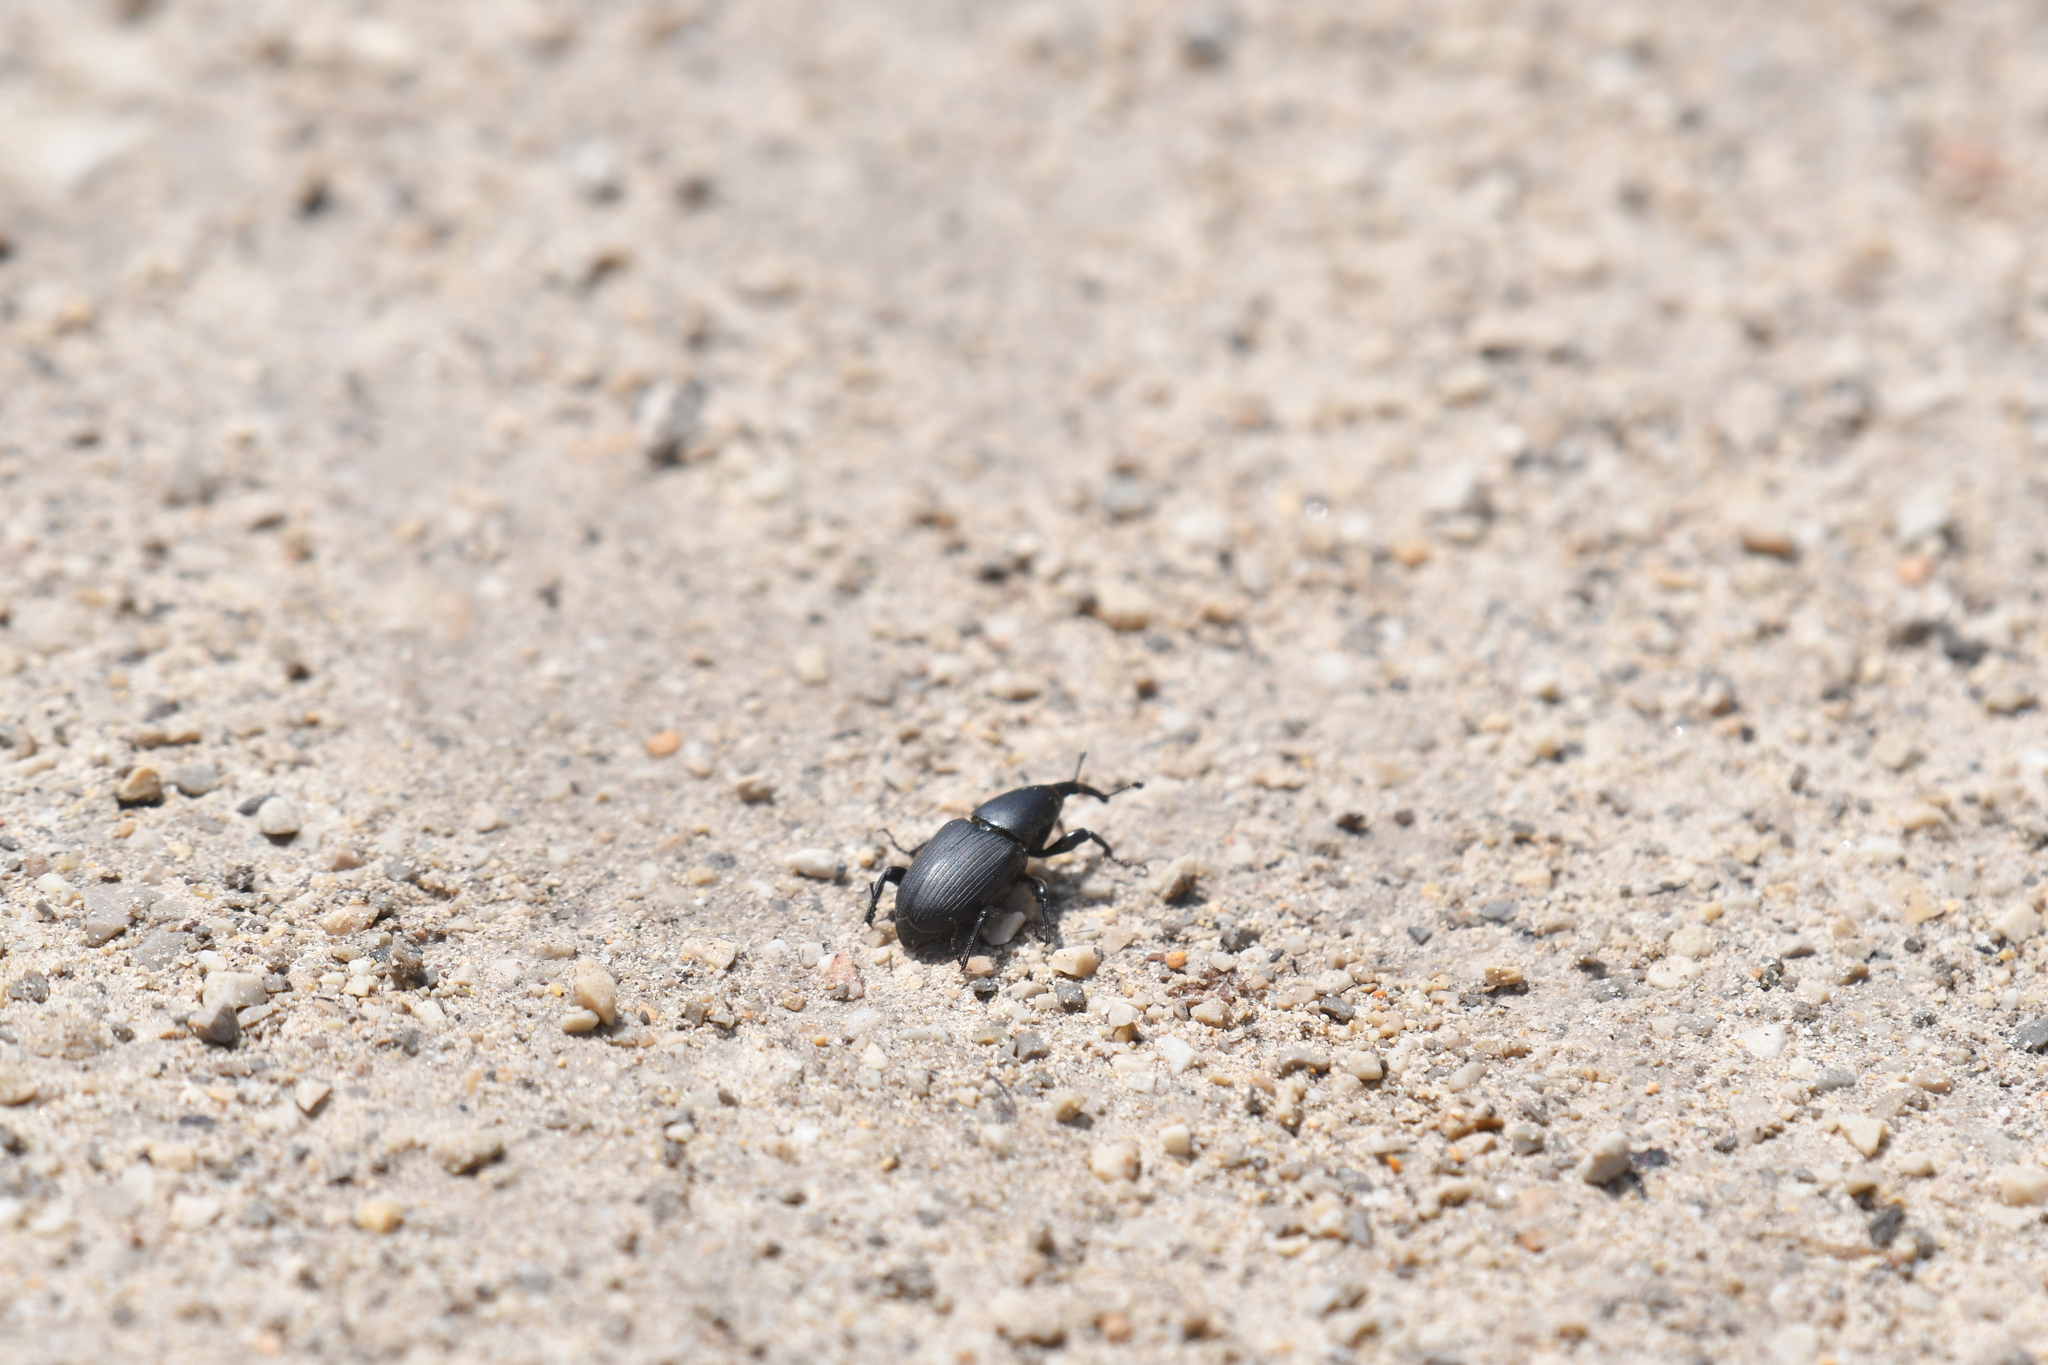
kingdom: Animalia
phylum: Arthropoda
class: Insecta
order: Coleoptera
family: Dryophthoridae
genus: Sphenophorus
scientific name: Sphenophorus striatopunctatus
